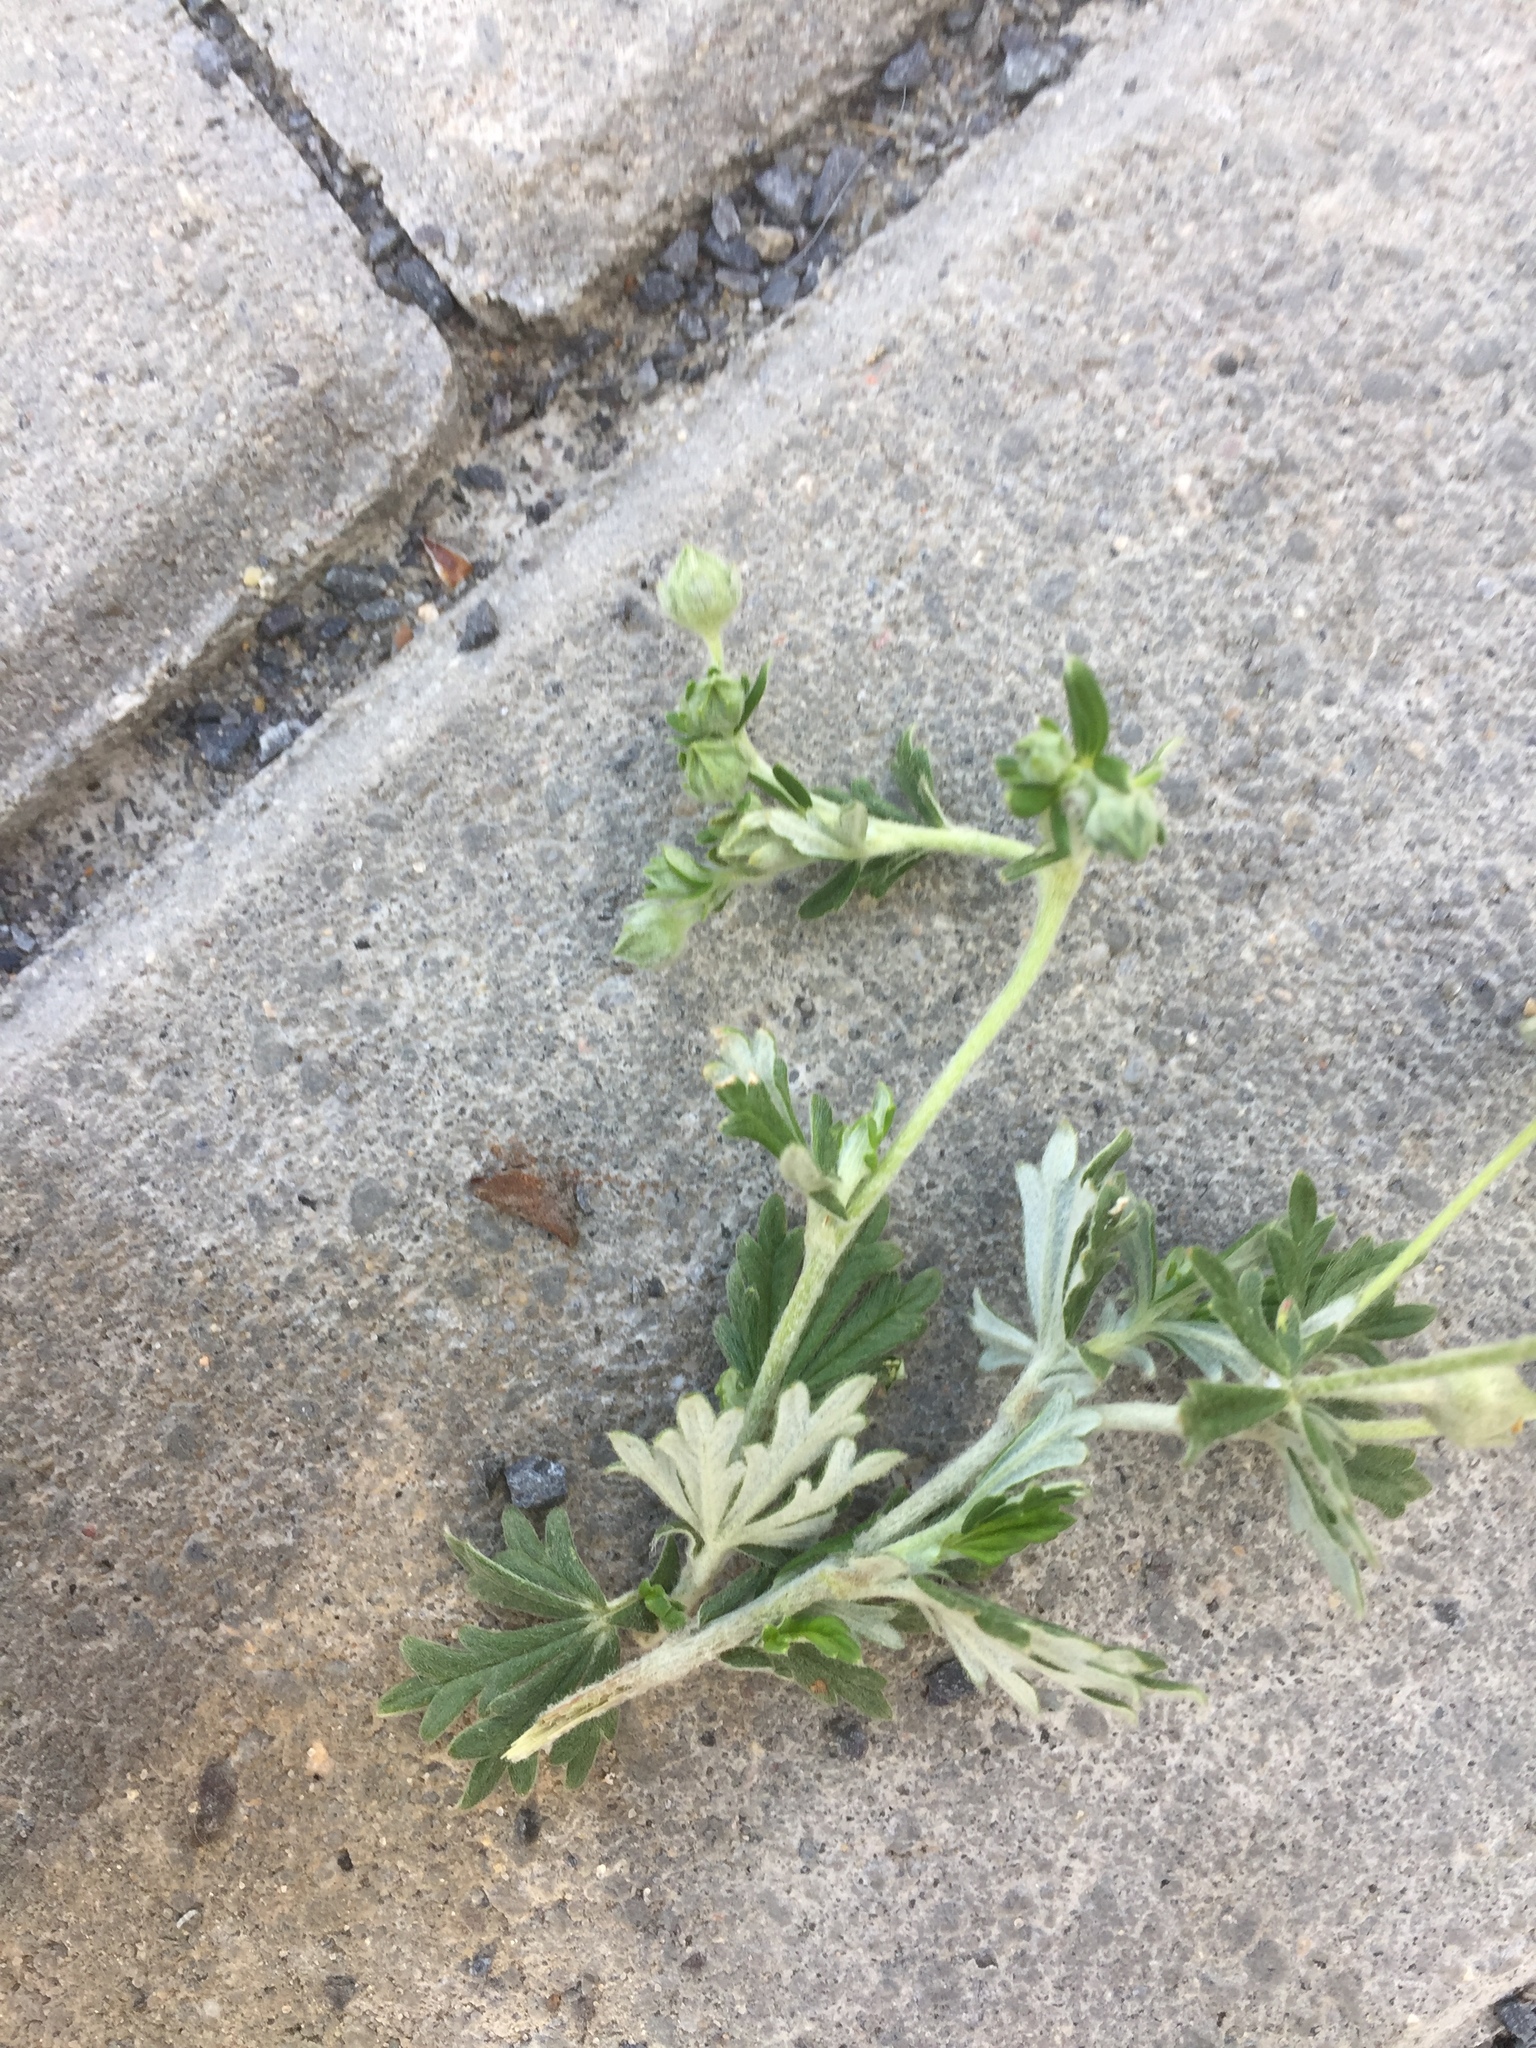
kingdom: Plantae
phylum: Tracheophyta
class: Magnoliopsida
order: Rosales
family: Rosaceae
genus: Potentilla
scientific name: Potentilla argentea
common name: Hoary cinquefoil
